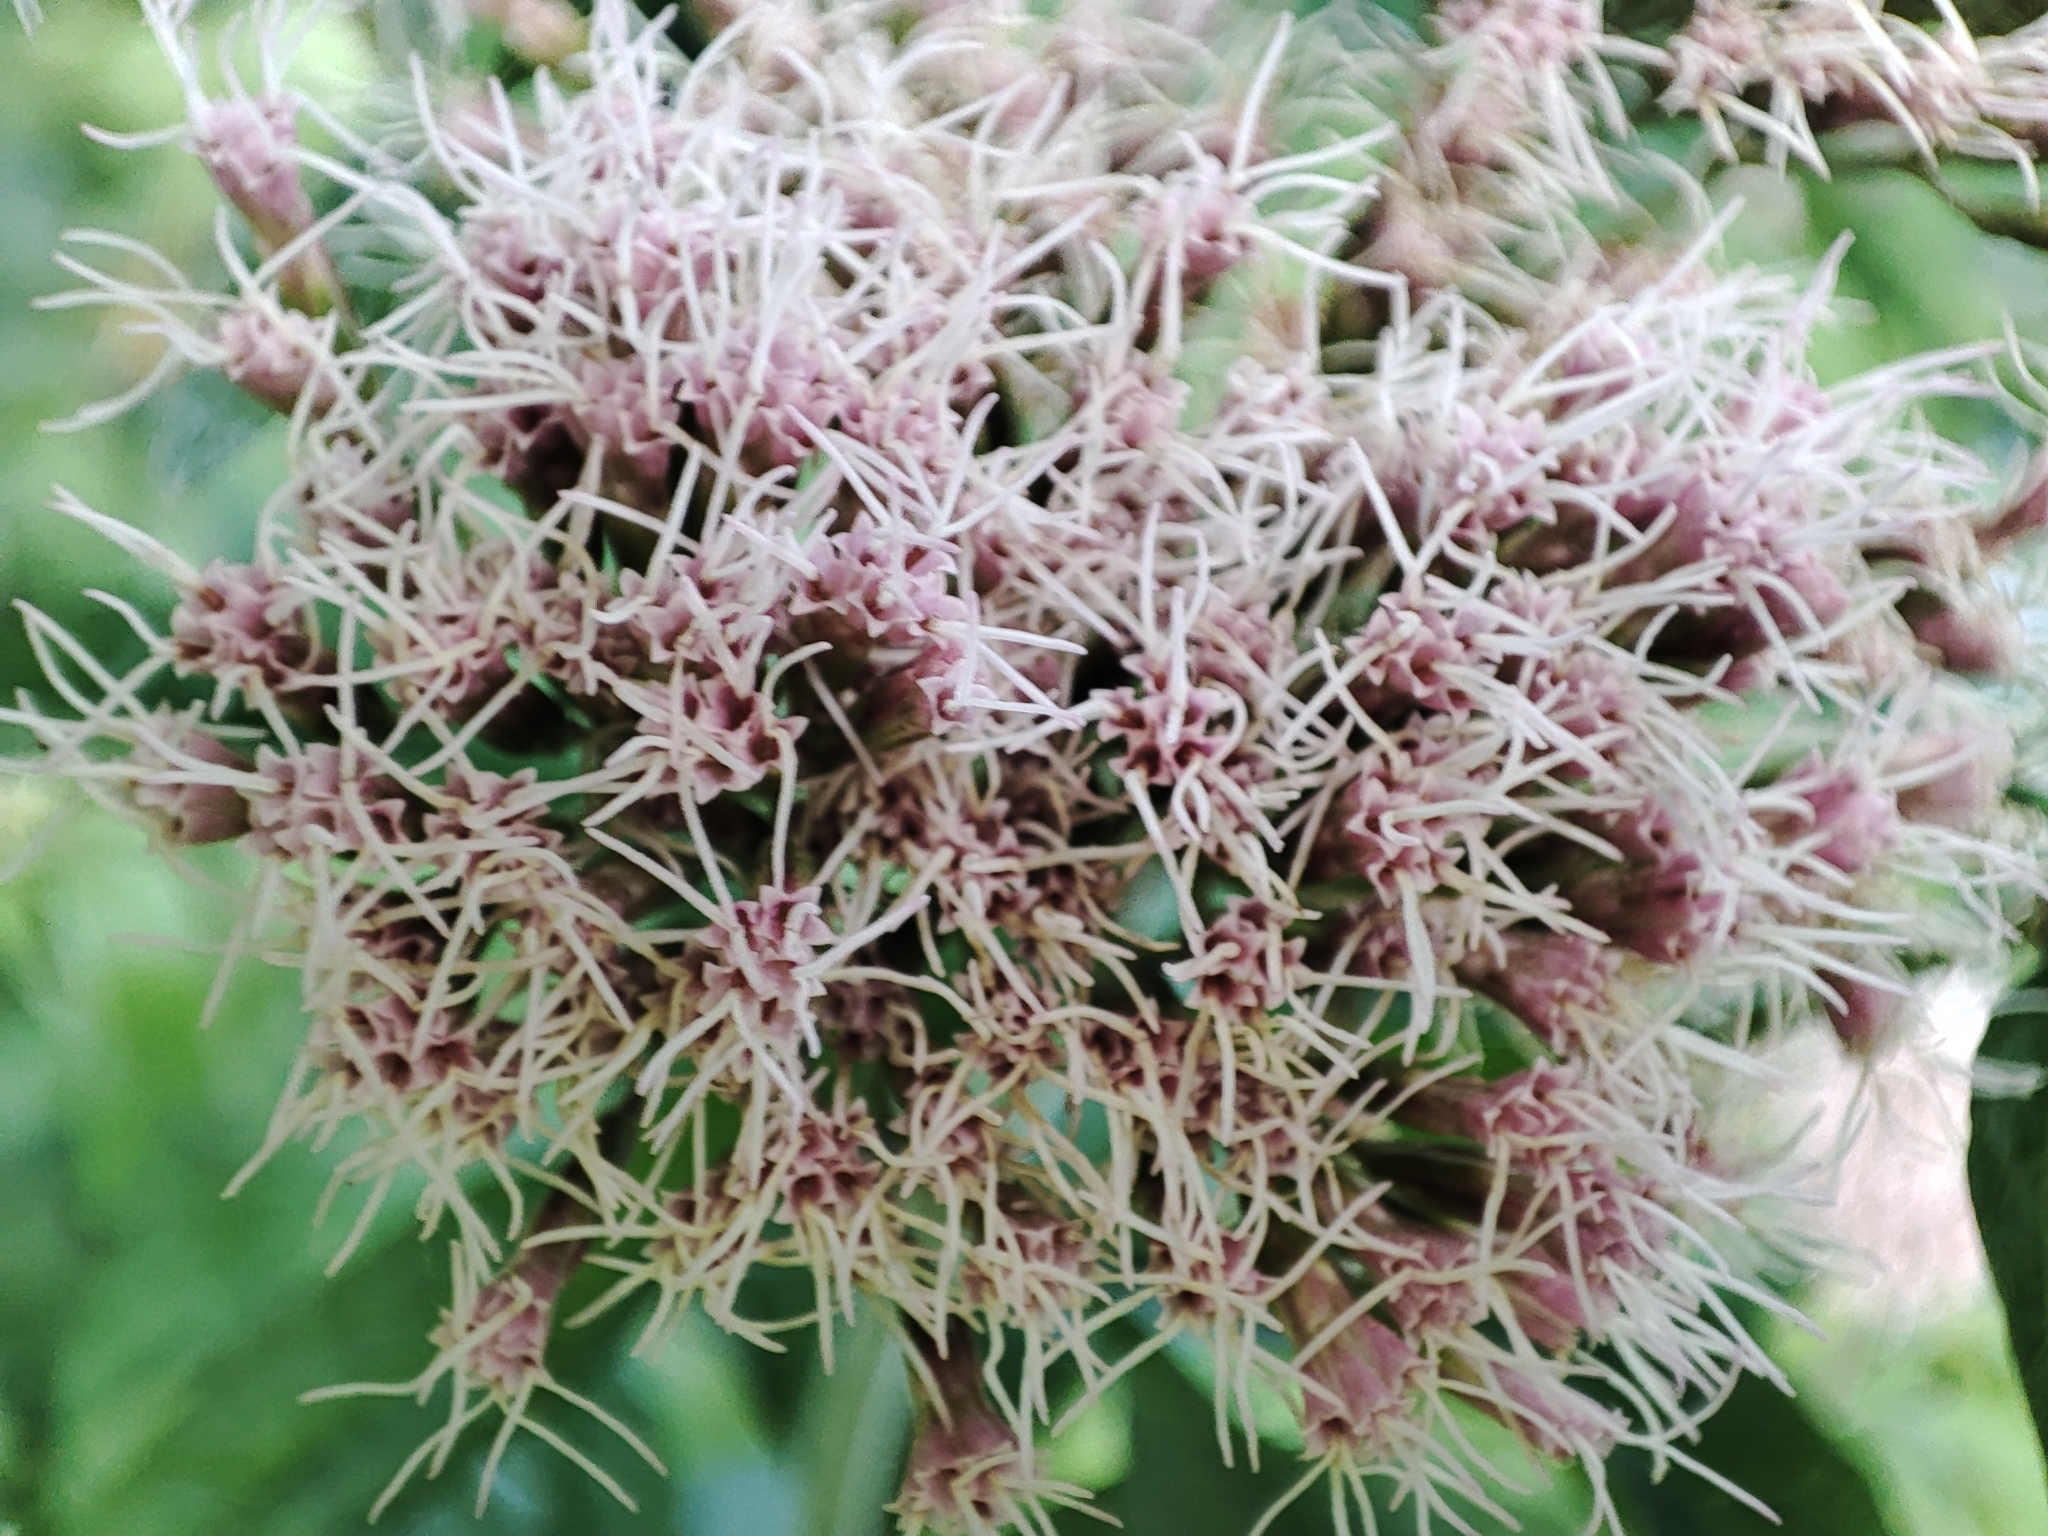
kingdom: Plantae
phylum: Tracheophyta
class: Magnoliopsida
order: Asterales
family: Asteraceae
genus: Eupatorium
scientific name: Eupatorium cannabinum
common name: Hemp-agrimony
